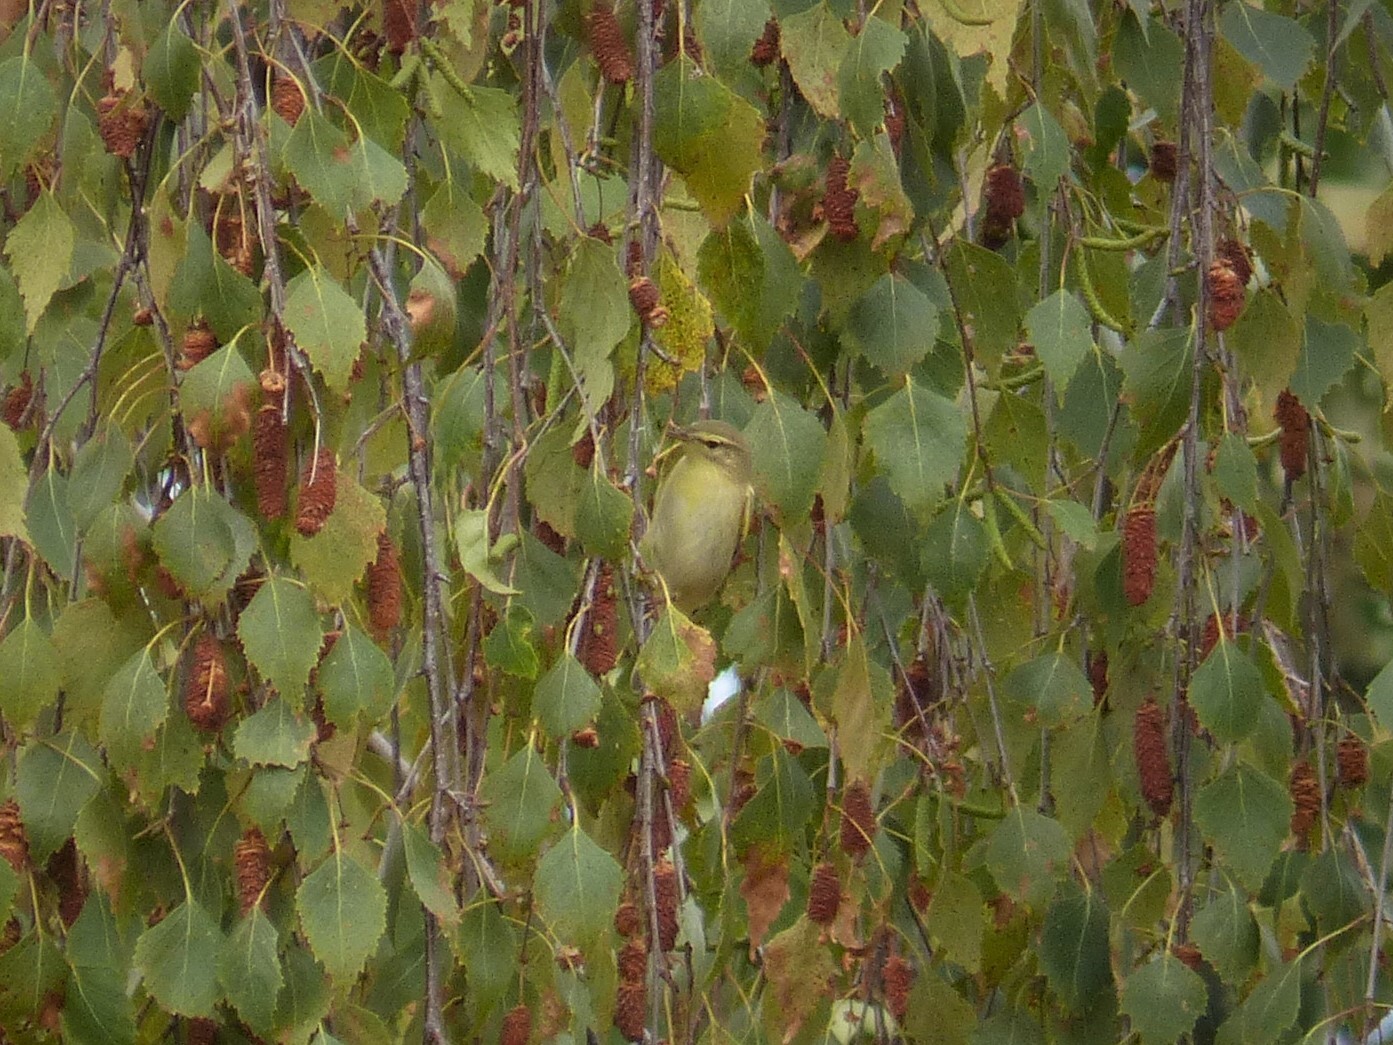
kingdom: Animalia
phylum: Chordata
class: Aves
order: Passeriformes
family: Phylloscopidae
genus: Phylloscopus
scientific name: Phylloscopus trochilus
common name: Willow warbler
